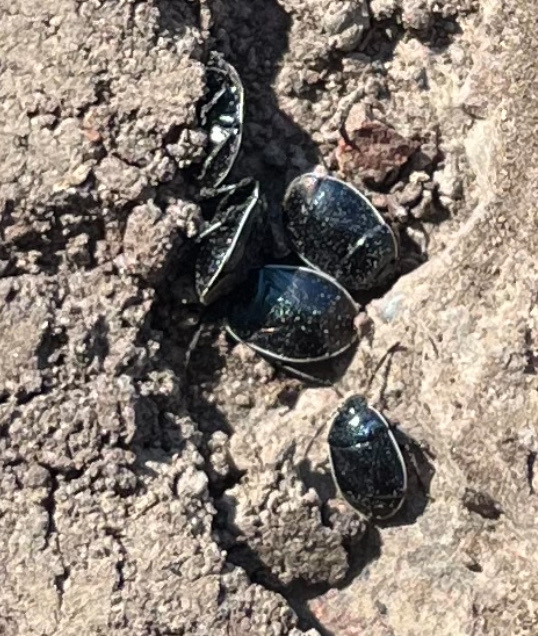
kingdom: Animalia
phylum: Arthropoda
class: Insecta
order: Hemiptera
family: Cydnidae
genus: Sehirus
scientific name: Sehirus cinctus
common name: White-margined burrower bug
